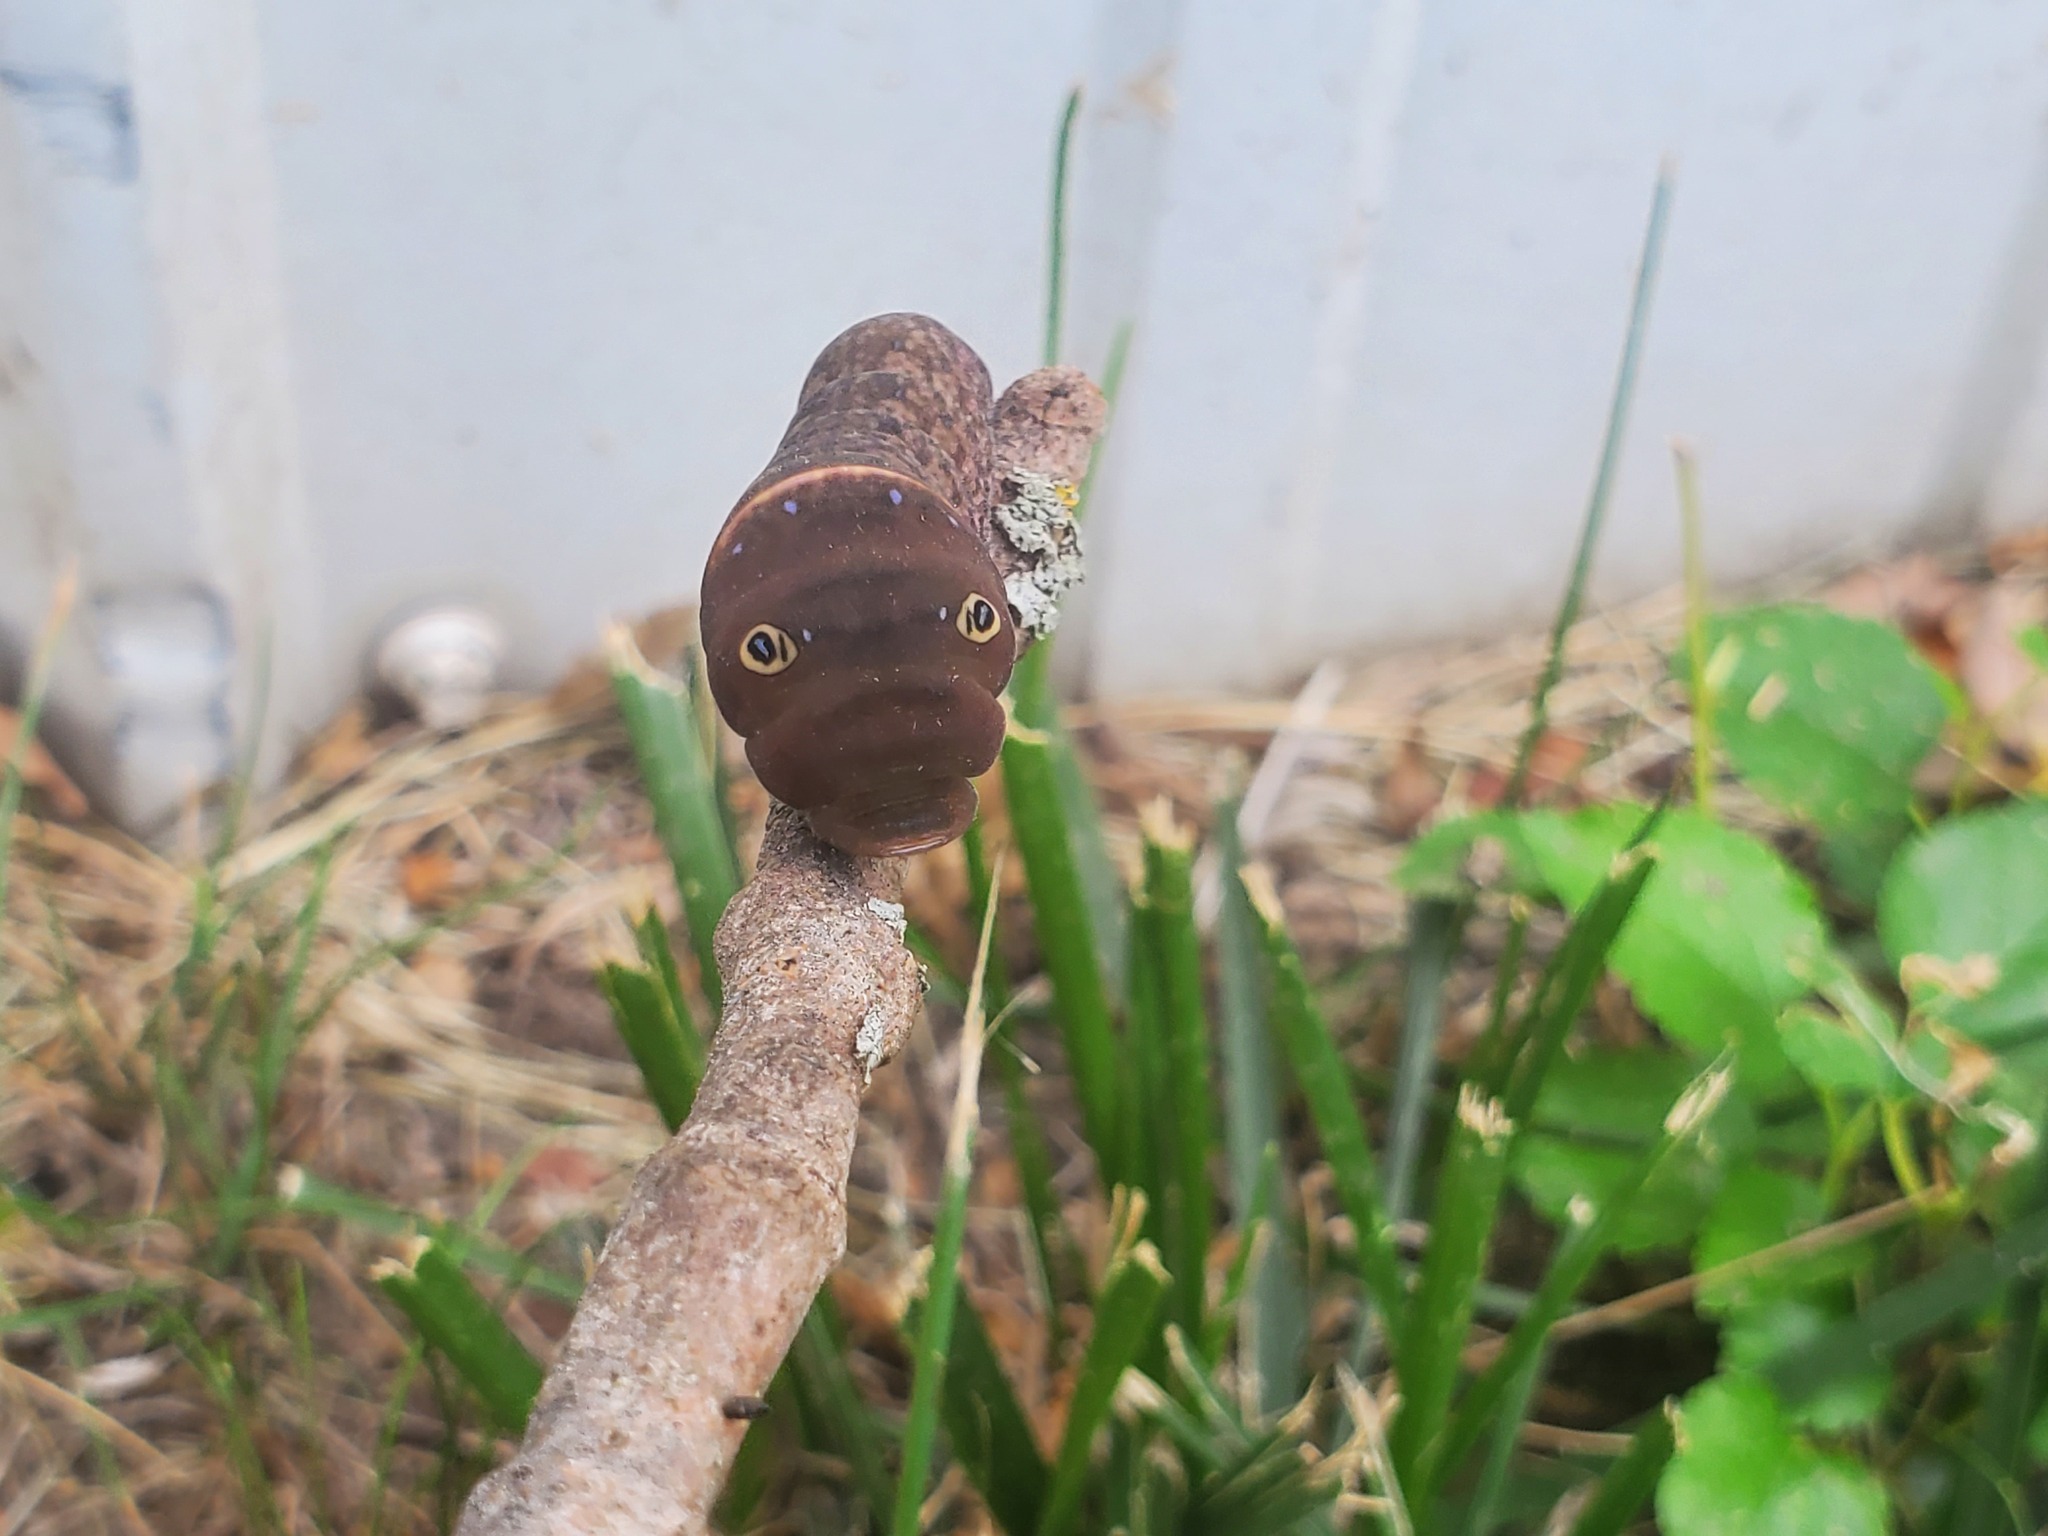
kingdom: Animalia
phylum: Arthropoda
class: Insecta
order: Lepidoptera
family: Papilionidae
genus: Papilio
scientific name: Papilio glaucus
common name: Tiger swallowtail
